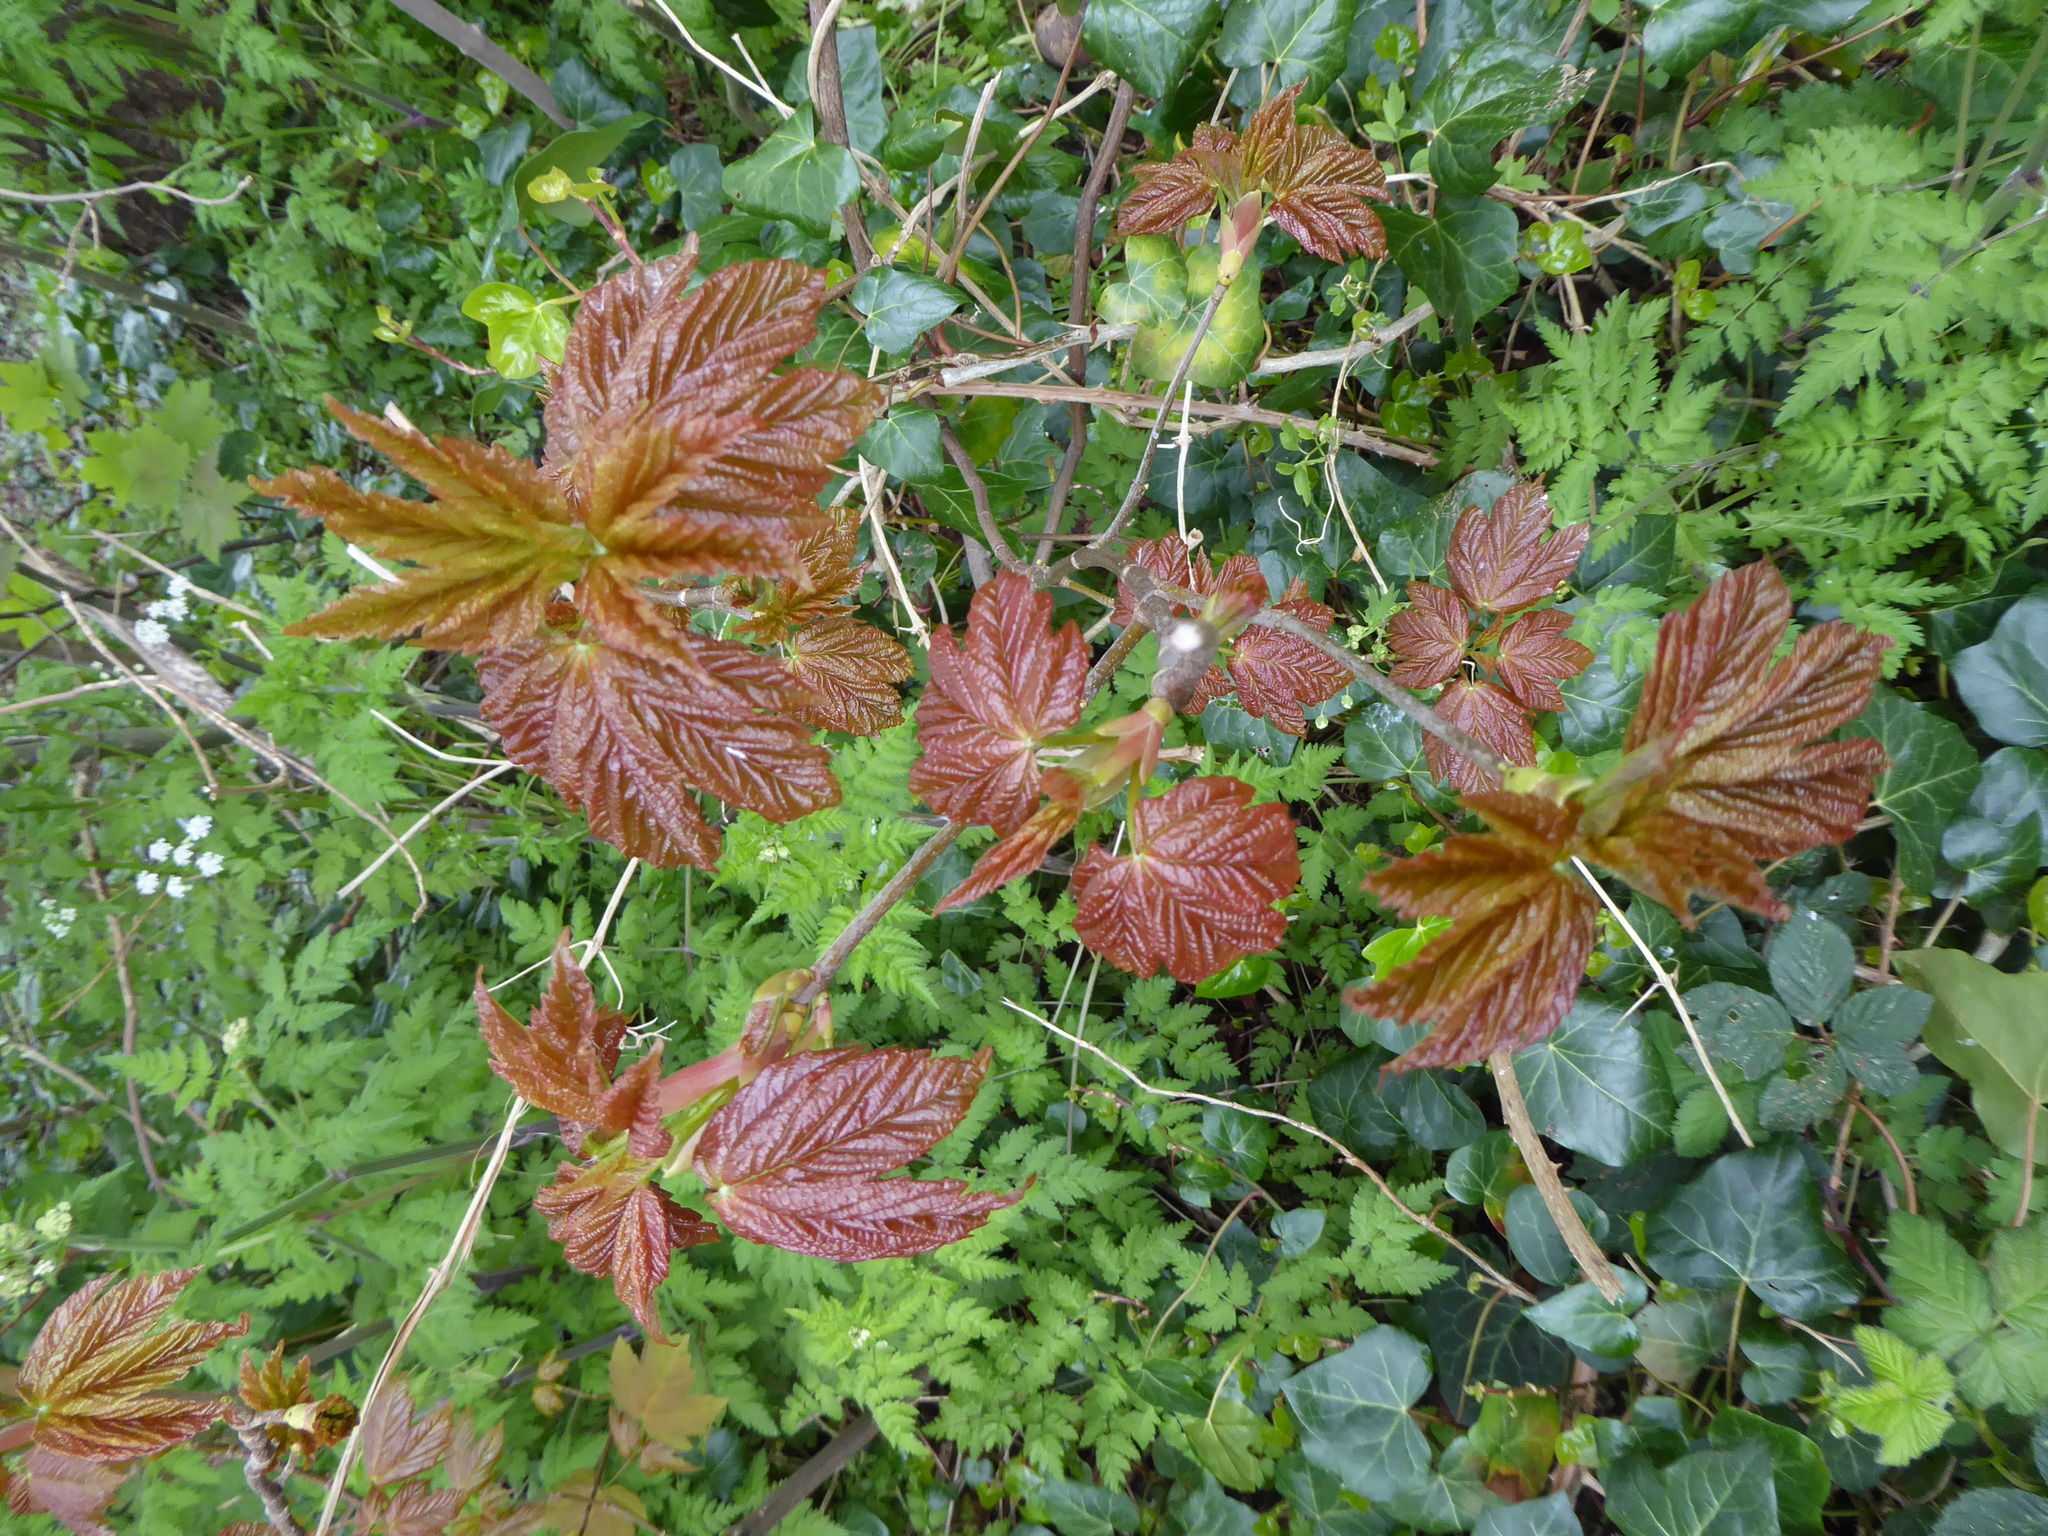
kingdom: Plantae
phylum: Tracheophyta
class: Magnoliopsida
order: Sapindales
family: Sapindaceae
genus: Acer
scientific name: Acer pseudoplatanus
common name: Sycamore
